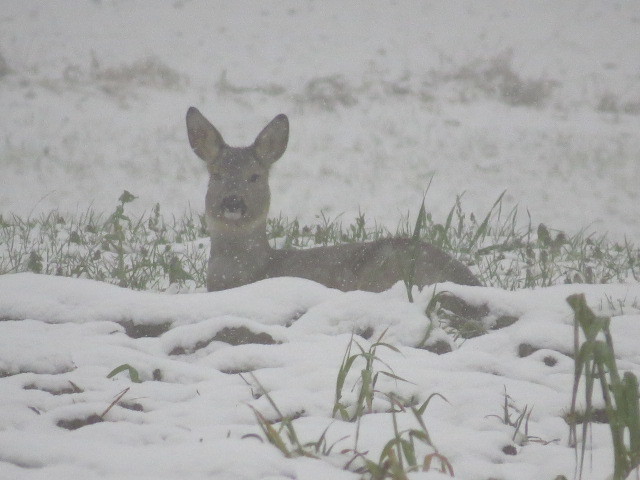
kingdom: Animalia
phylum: Chordata
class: Mammalia
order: Artiodactyla
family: Cervidae
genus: Capreolus
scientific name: Capreolus capreolus
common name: Western roe deer
